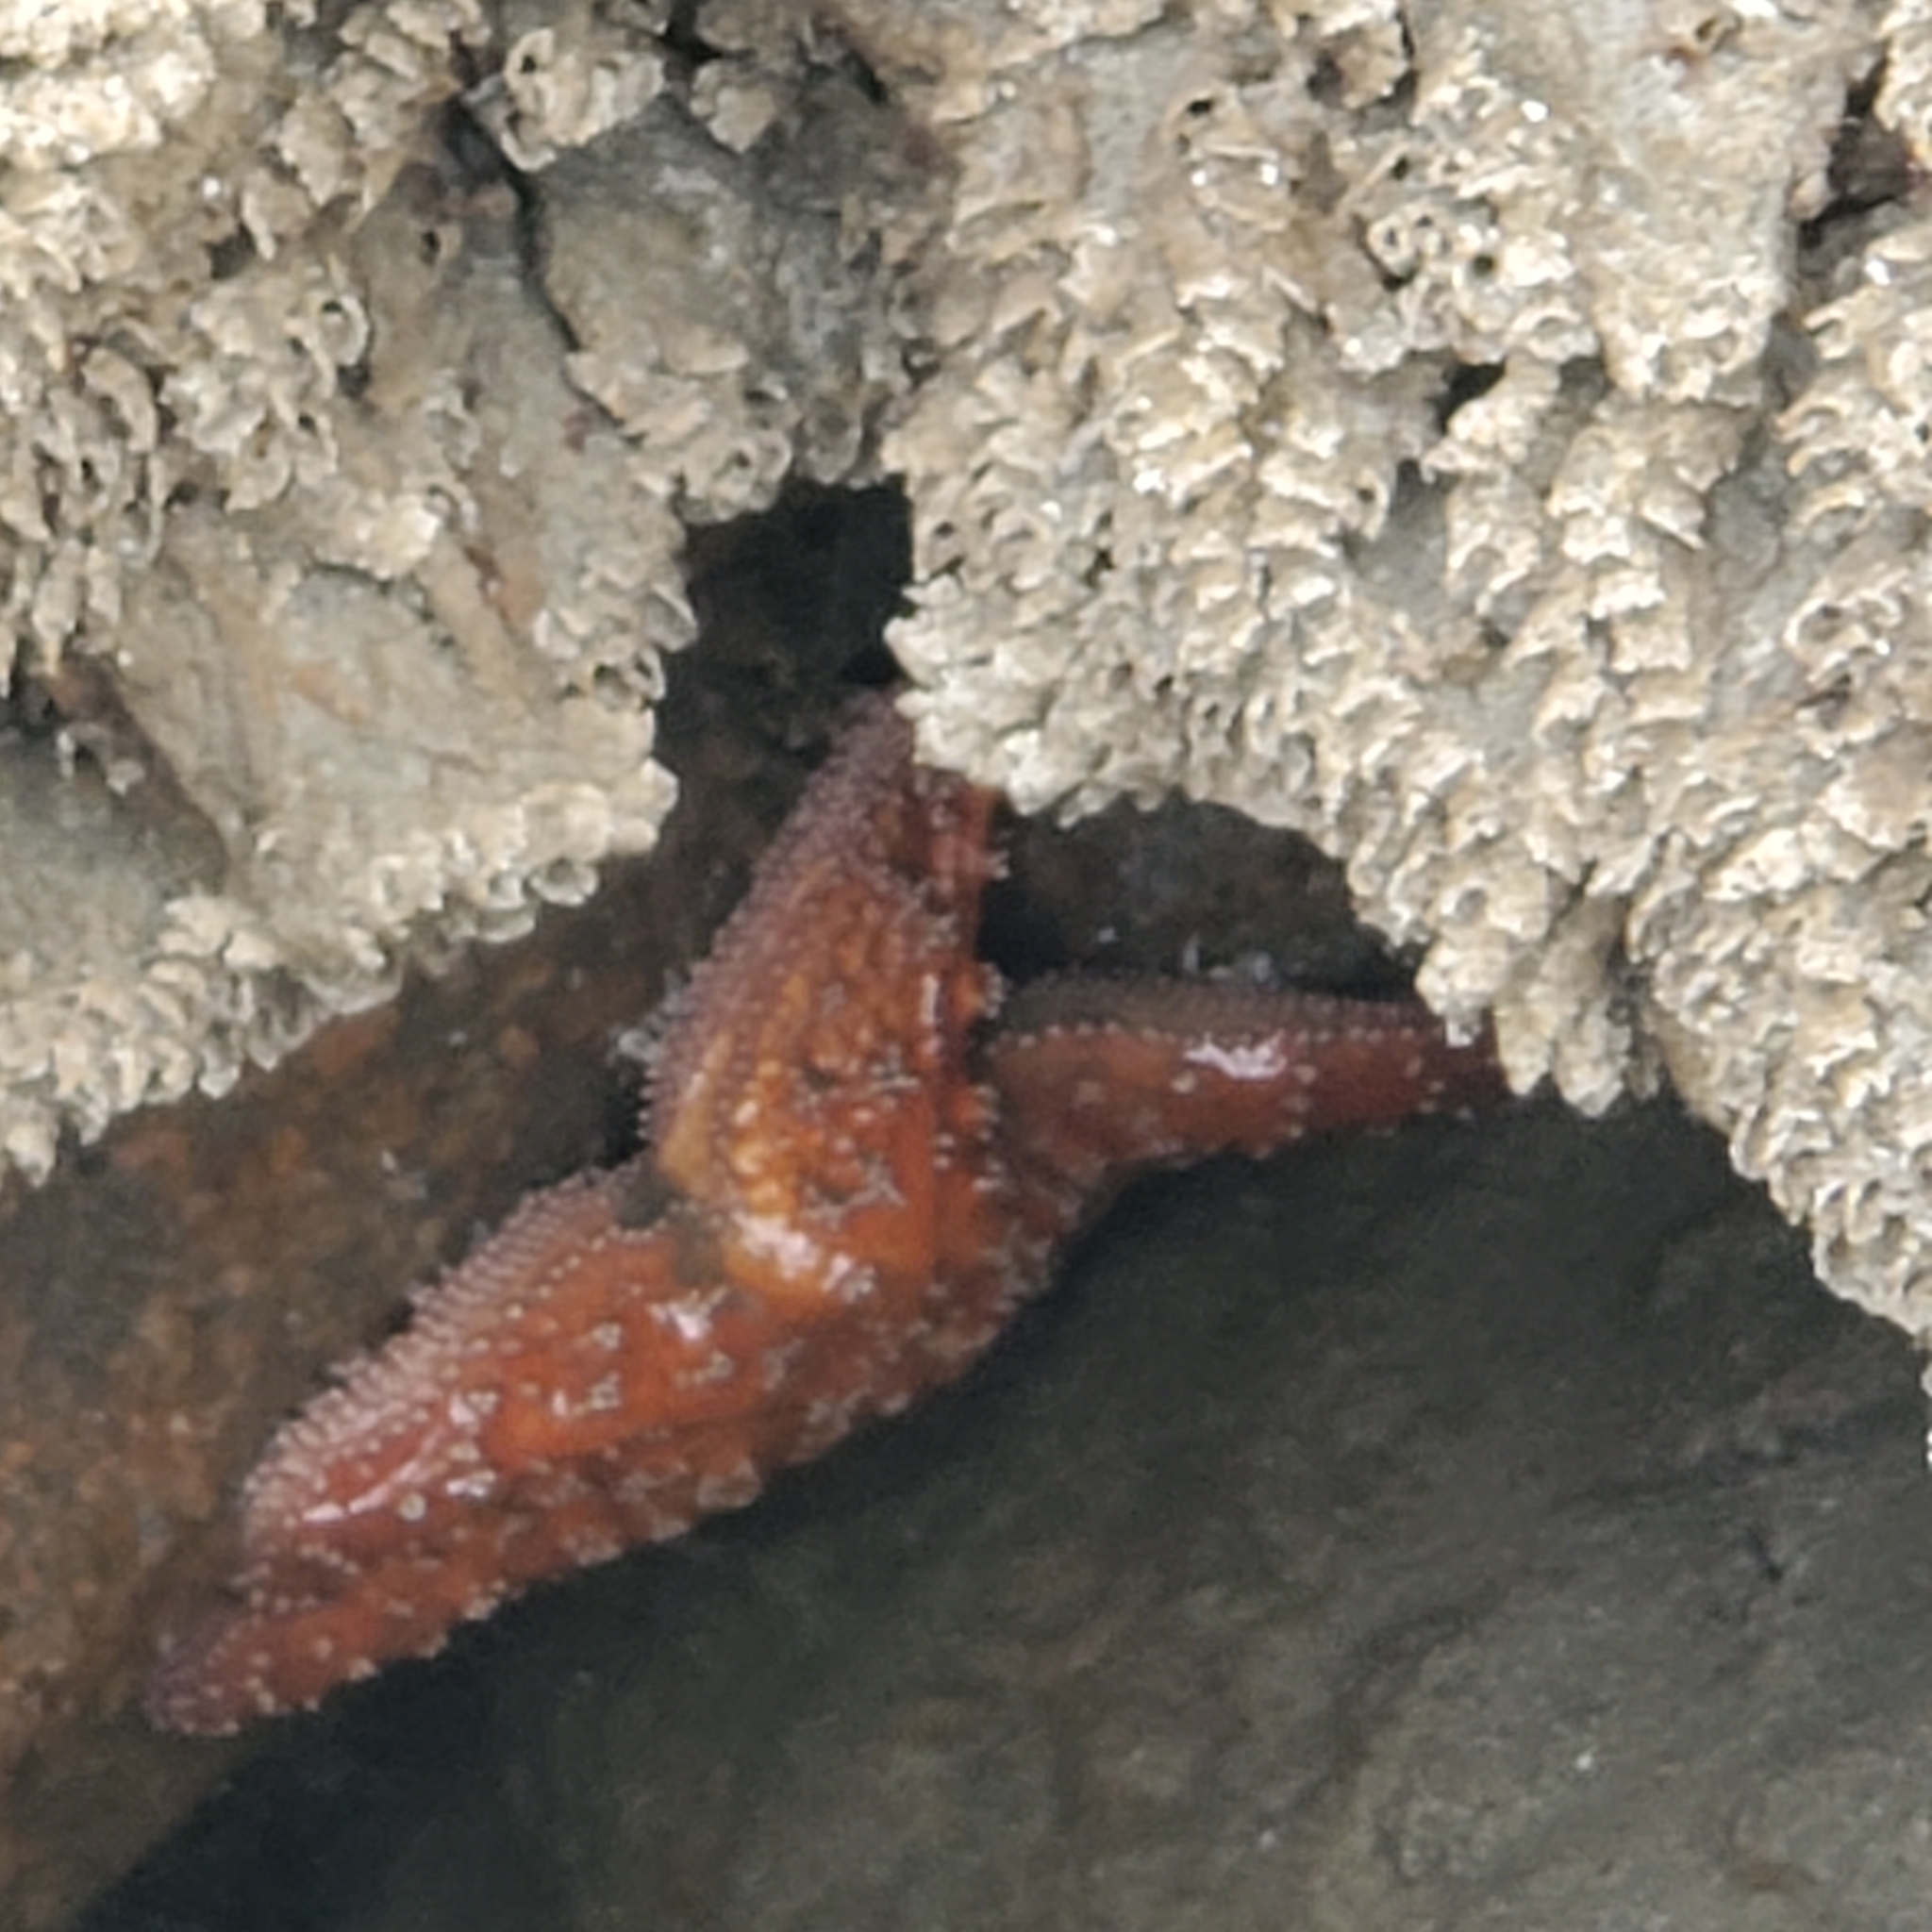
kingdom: Animalia
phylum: Echinodermata
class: Asteroidea
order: Forcipulatida
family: Asteriidae
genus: Pisaster
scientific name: Pisaster ochraceus
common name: Ochre stars
